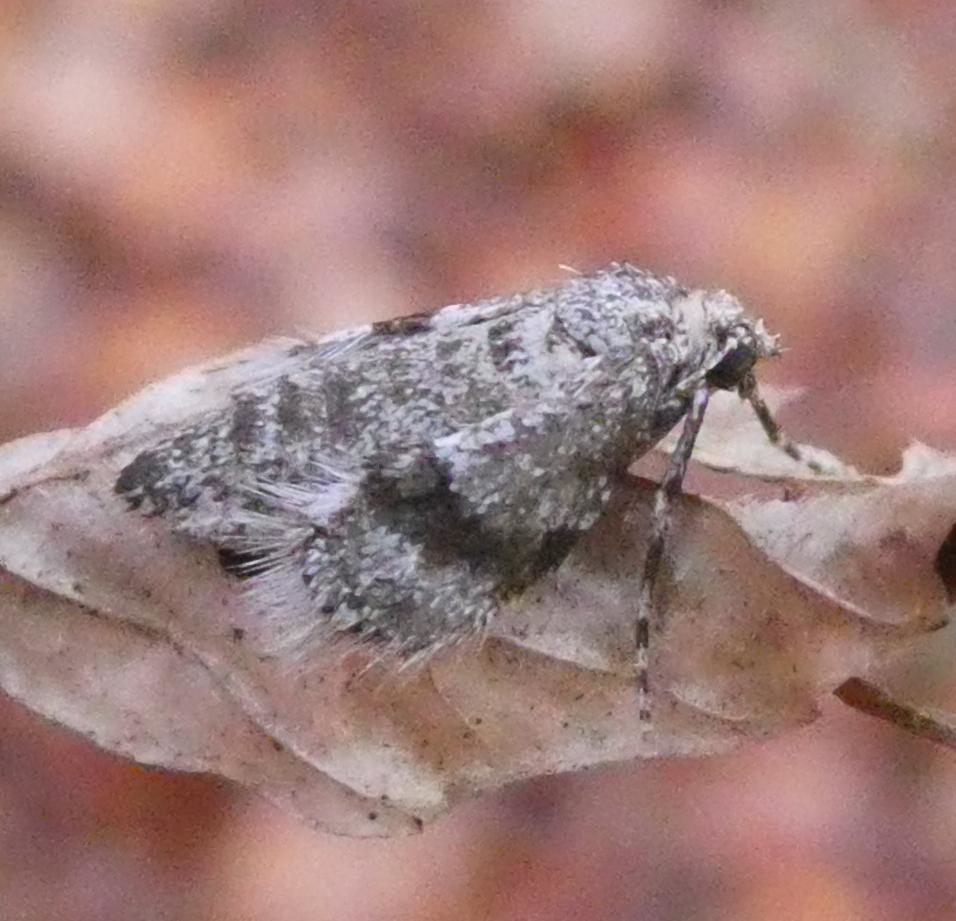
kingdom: Animalia
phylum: Arthropoda
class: Insecta
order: Lepidoptera
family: Geometridae
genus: Operophtera
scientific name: Operophtera fagata
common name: Northern winter moth
